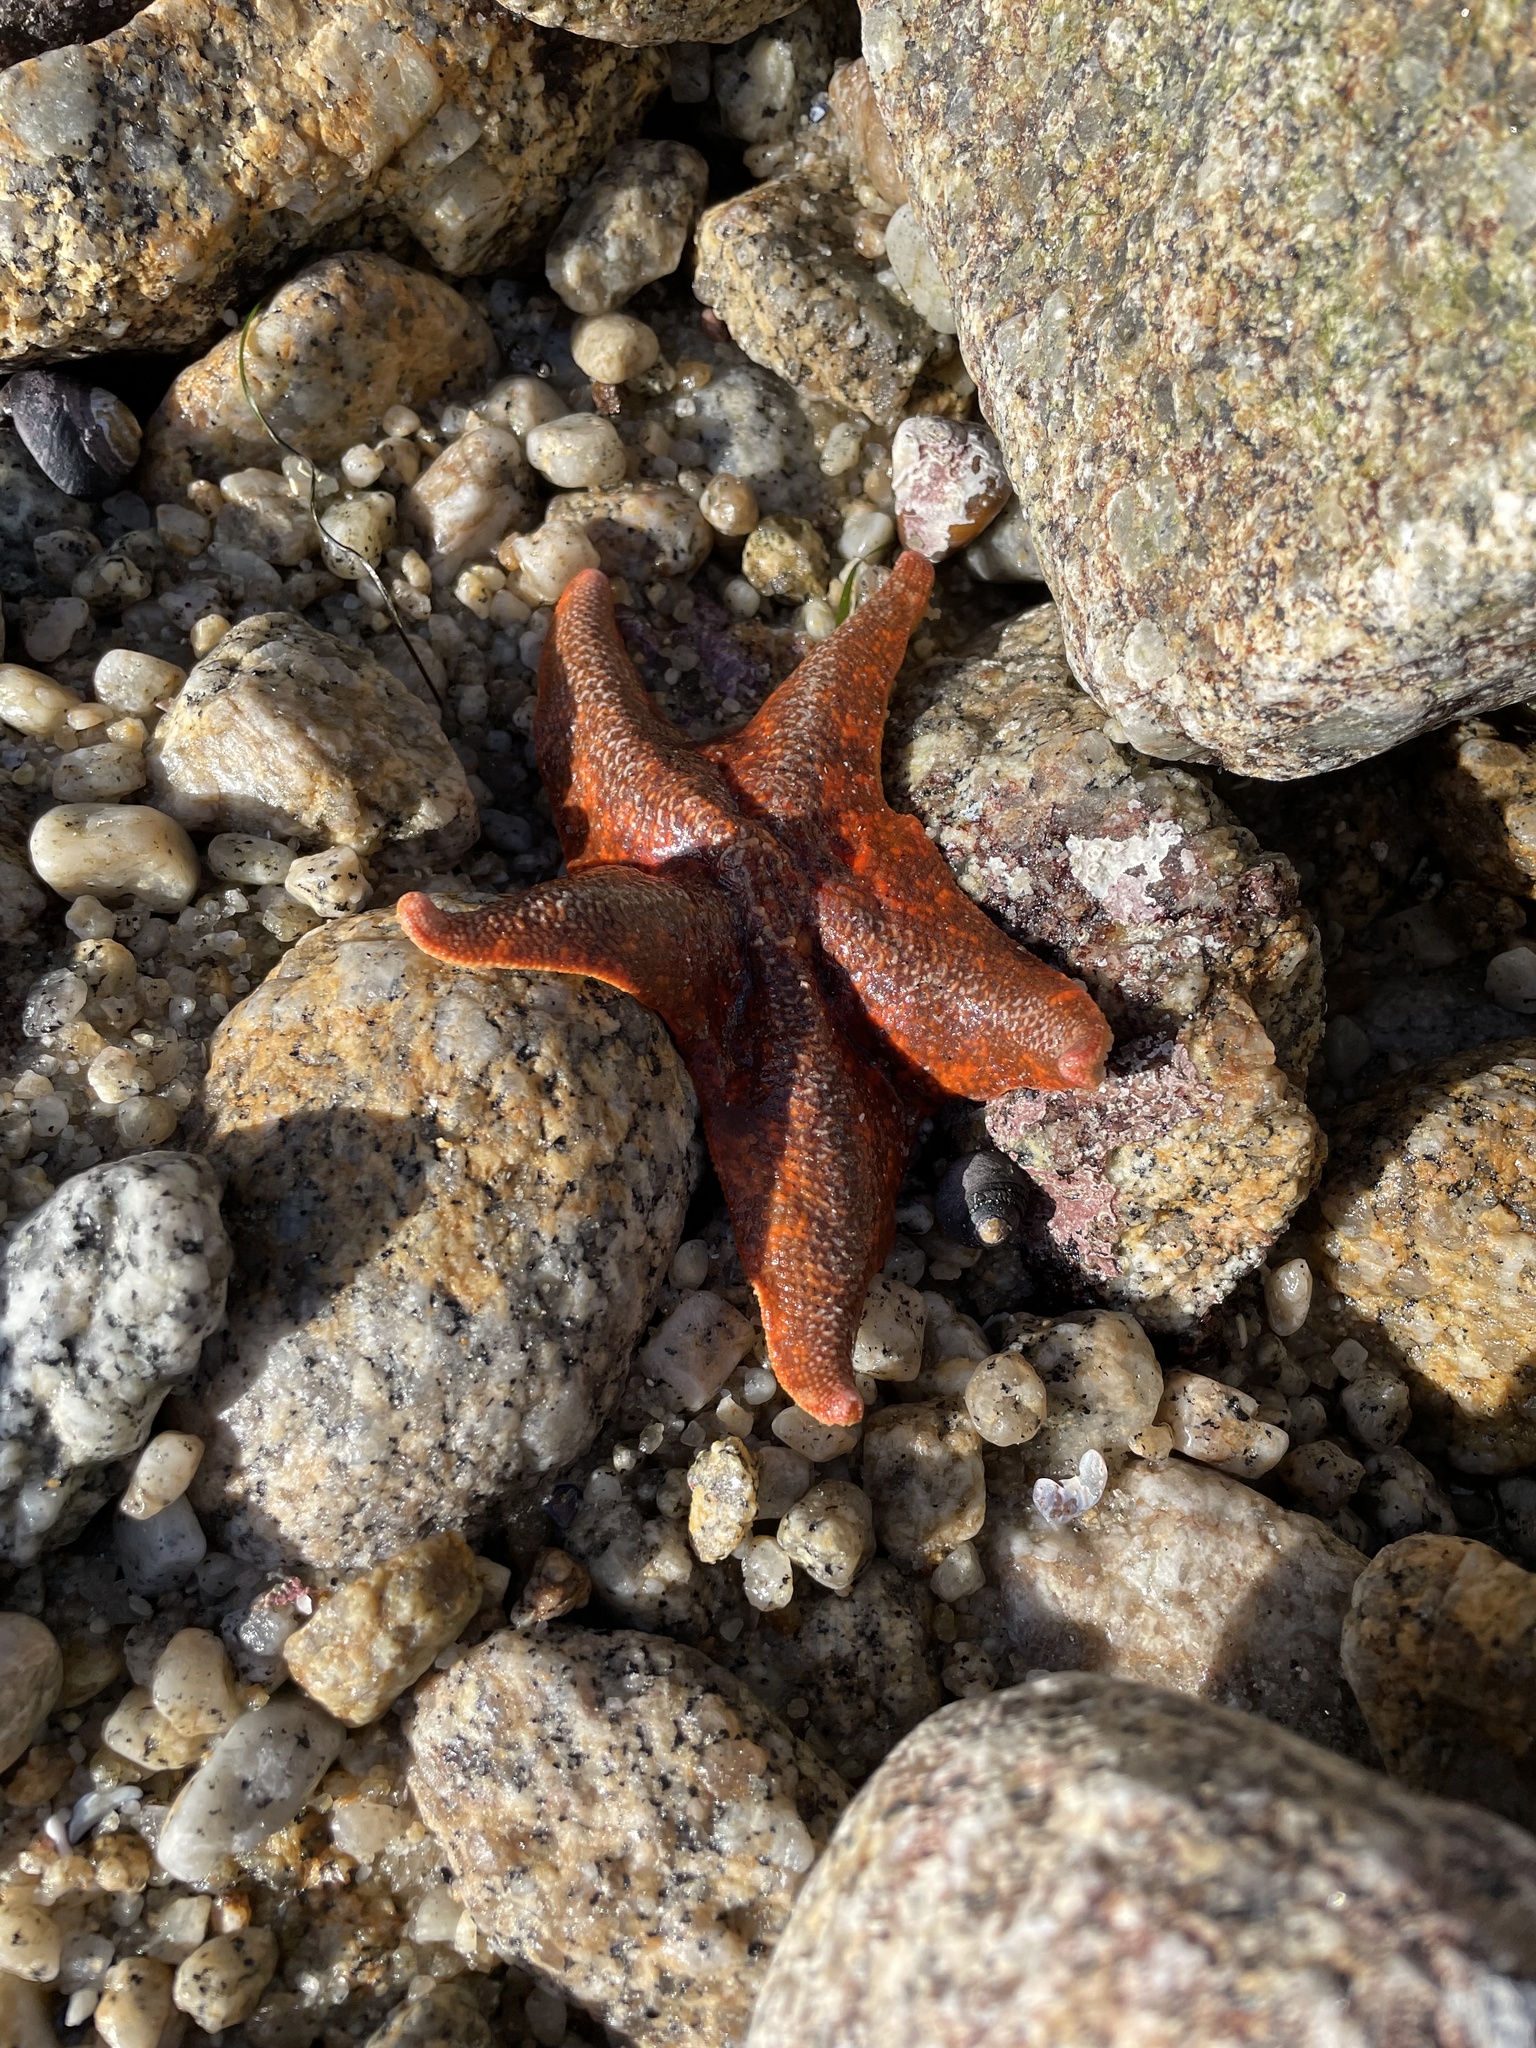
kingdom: Animalia
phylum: Echinodermata
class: Asteroidea
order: Valvatida
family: Asterinidae
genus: Patiria
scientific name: Patiria miniata
